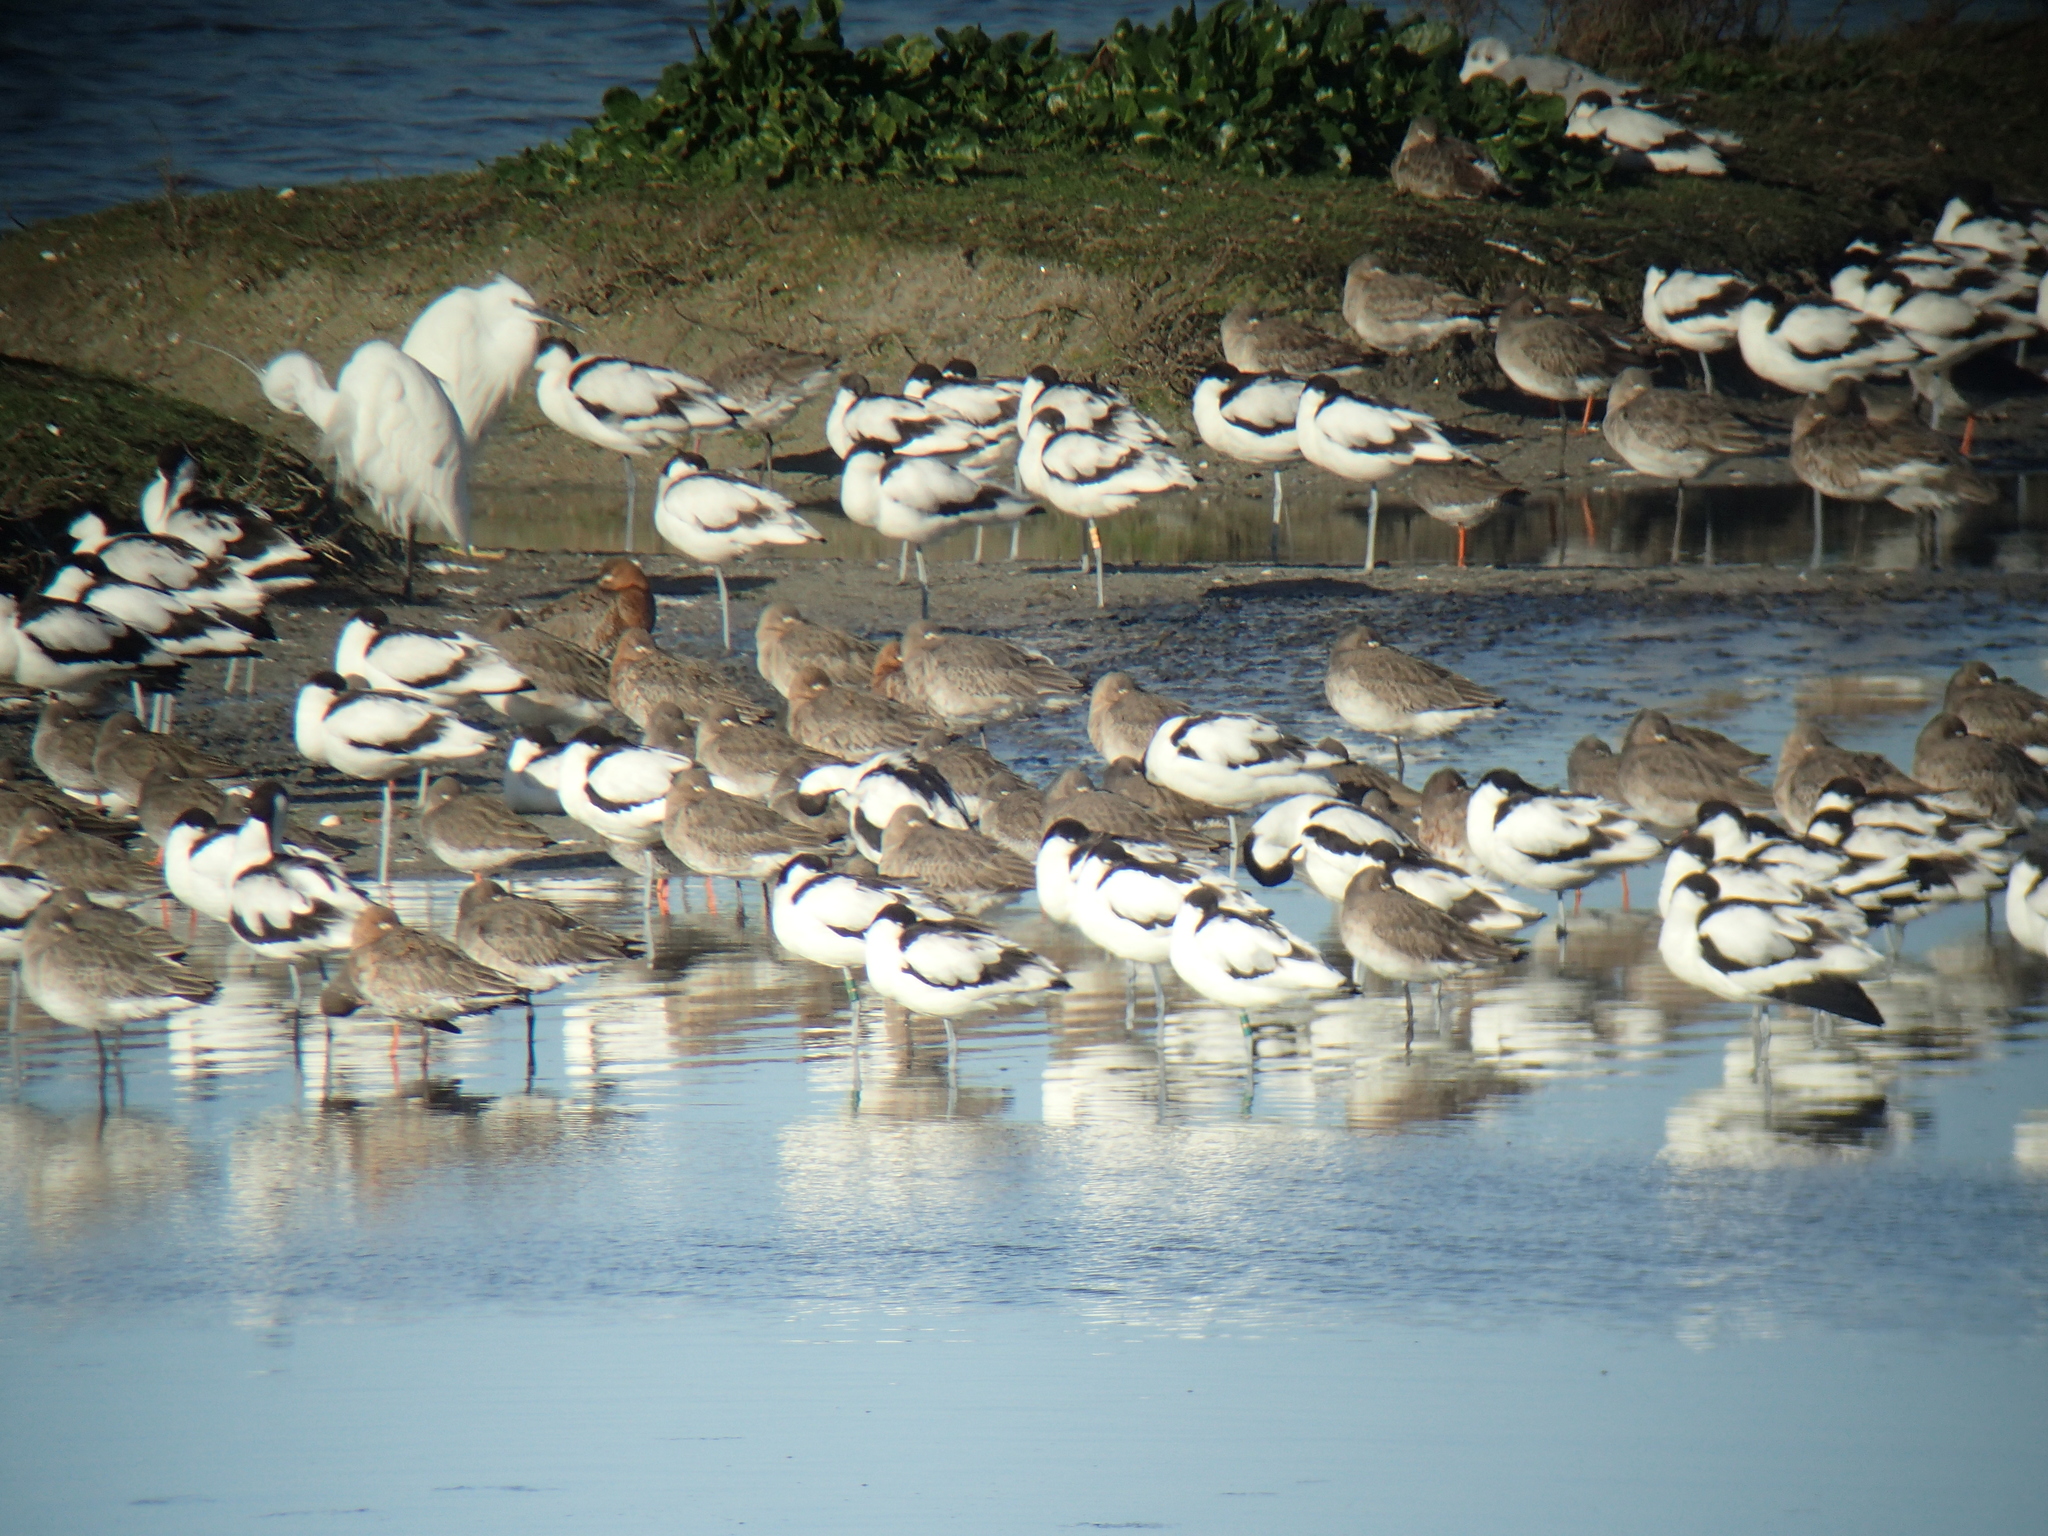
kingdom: Animalia
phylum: Chordata
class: Aves
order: Charadriiformes
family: Scolopacidae
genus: Limosa
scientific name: Limosa limosa
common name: Black-tailed godwit
